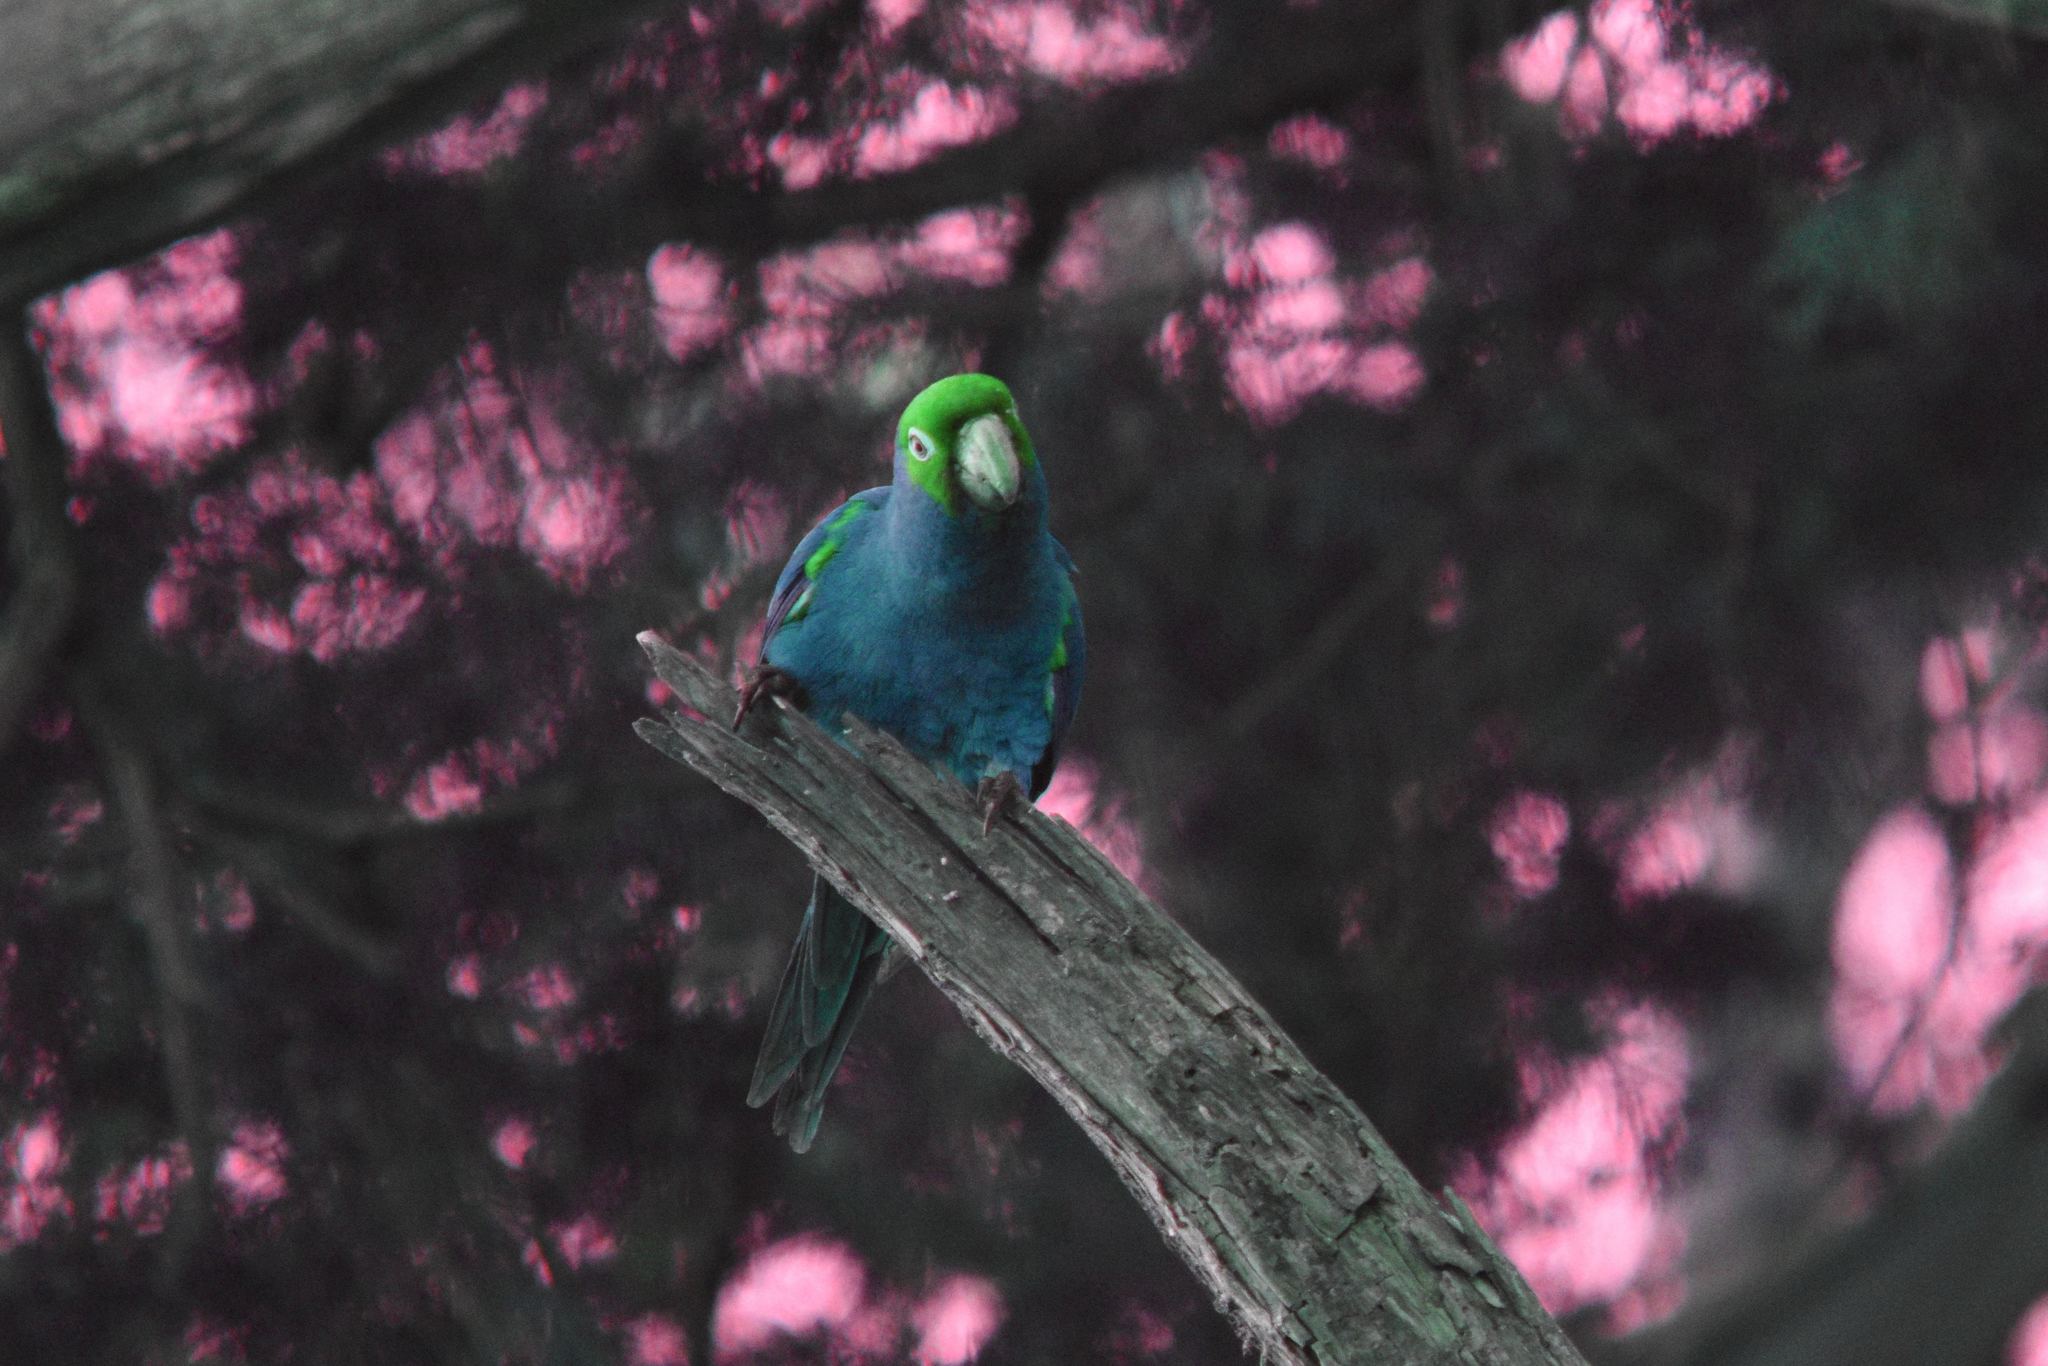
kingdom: Animalia
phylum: Chordata
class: Aves
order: Psittaciformes
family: Psittacidae
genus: Aratinga
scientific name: Aratinga erythrogenys
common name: Red-masked parakeet
